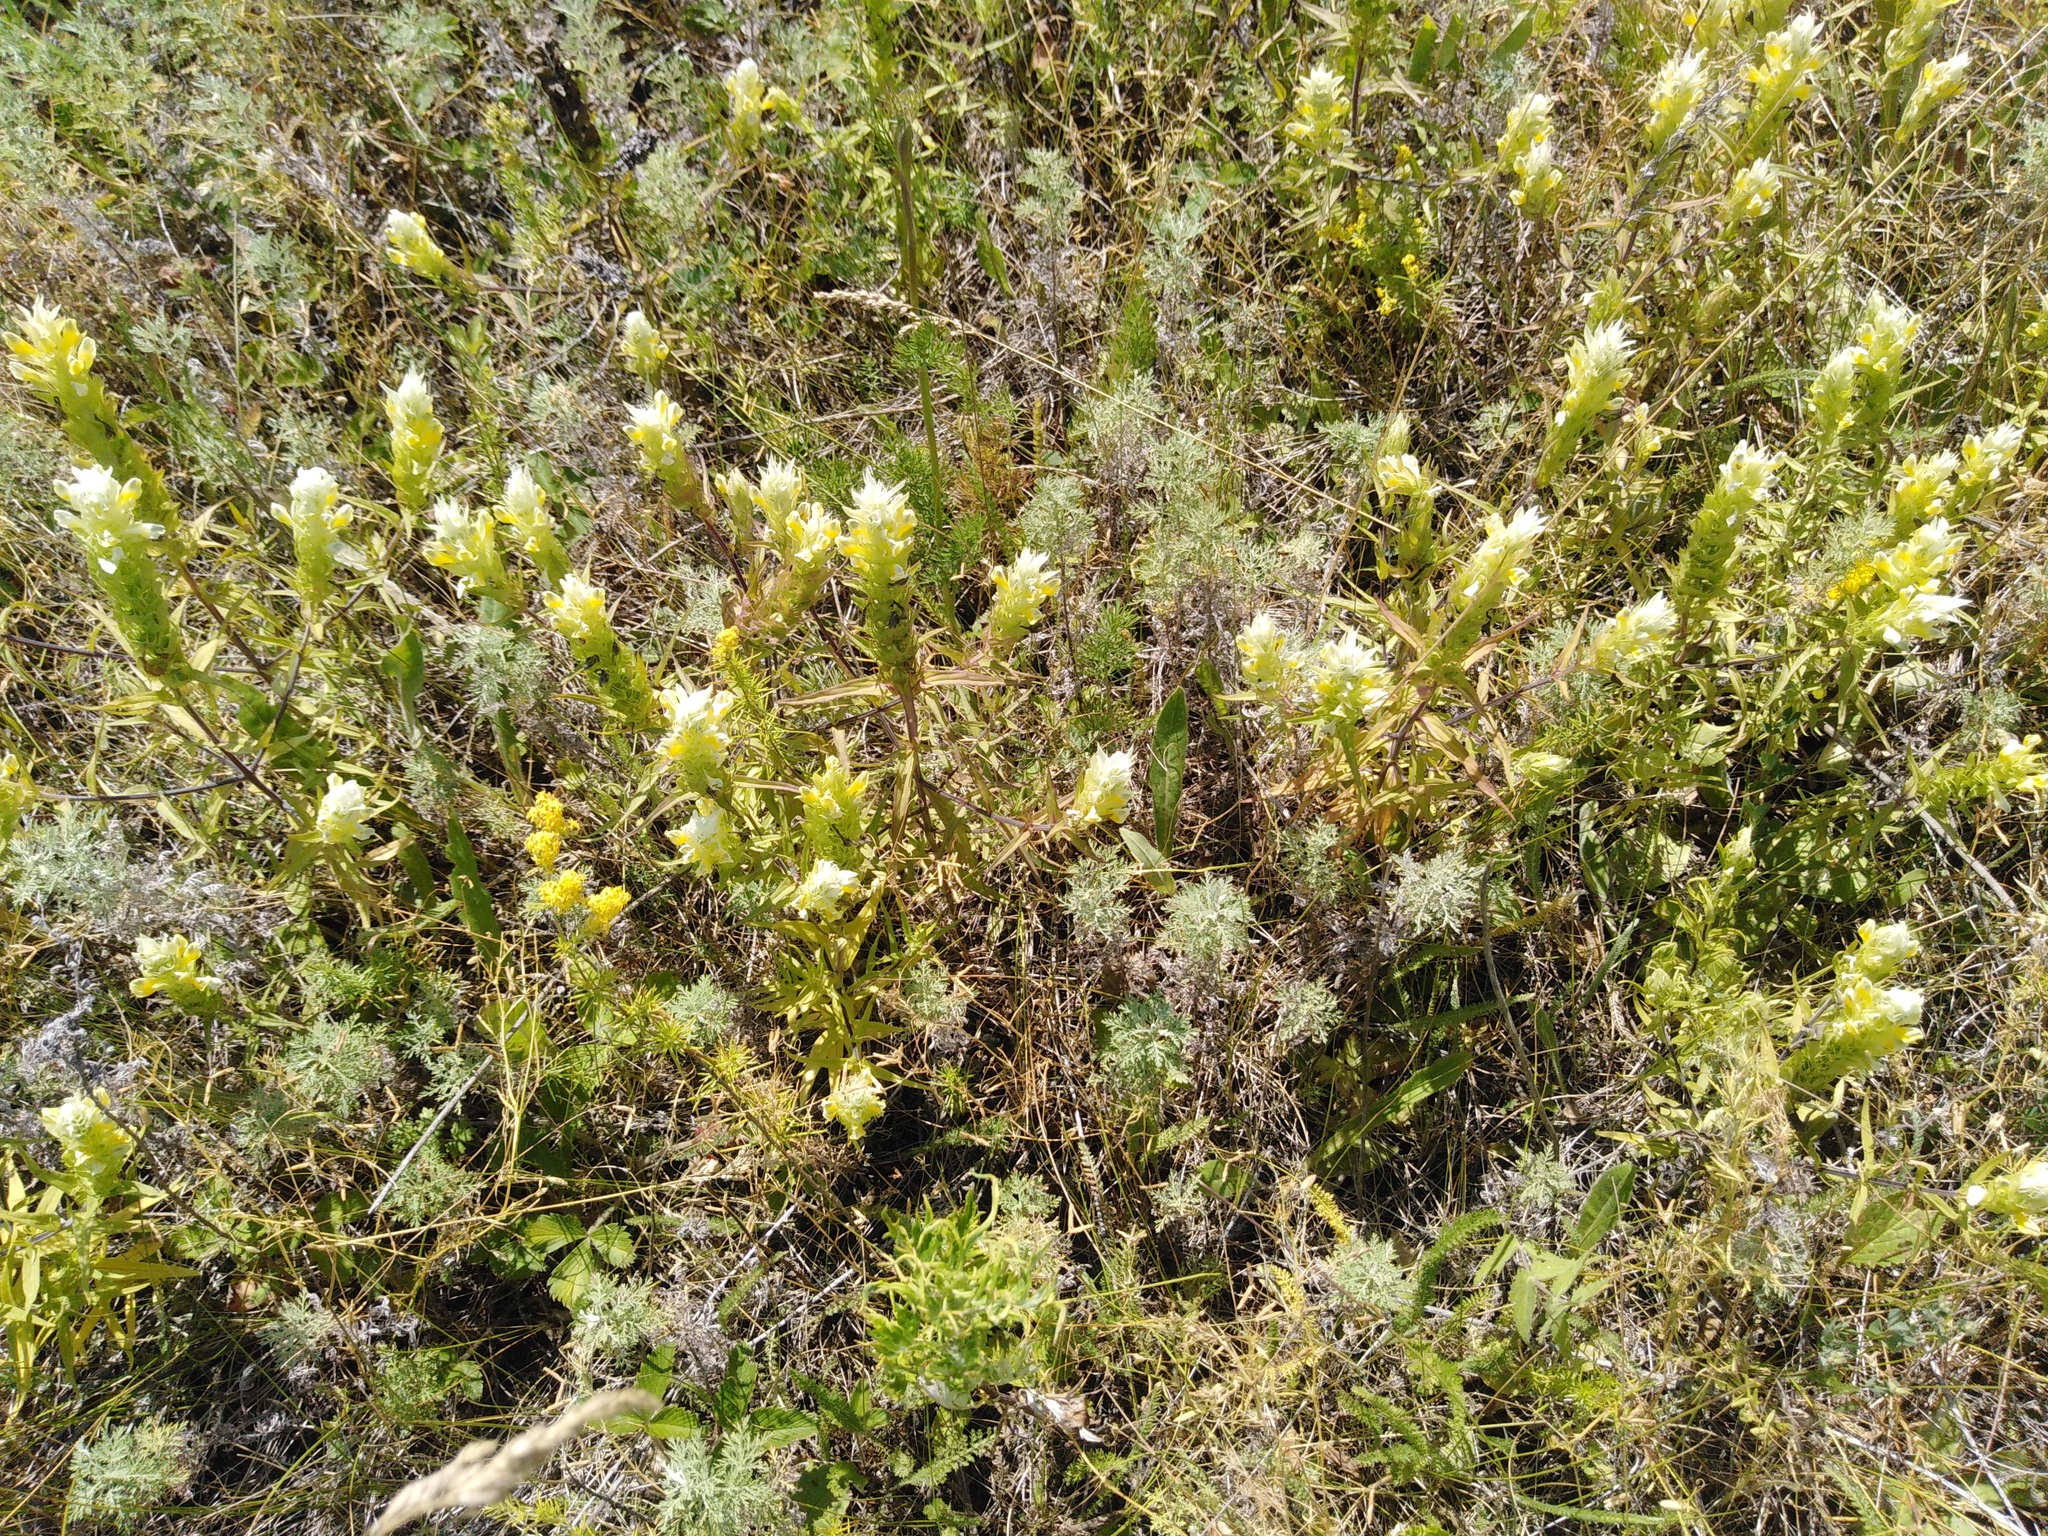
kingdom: Plantae
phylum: Tracheophyta
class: Magnoliopsida
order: Lamiales
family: Orobanchaceae
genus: Melampyrum
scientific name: Melampyrum arvense
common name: Field cow-wheat
